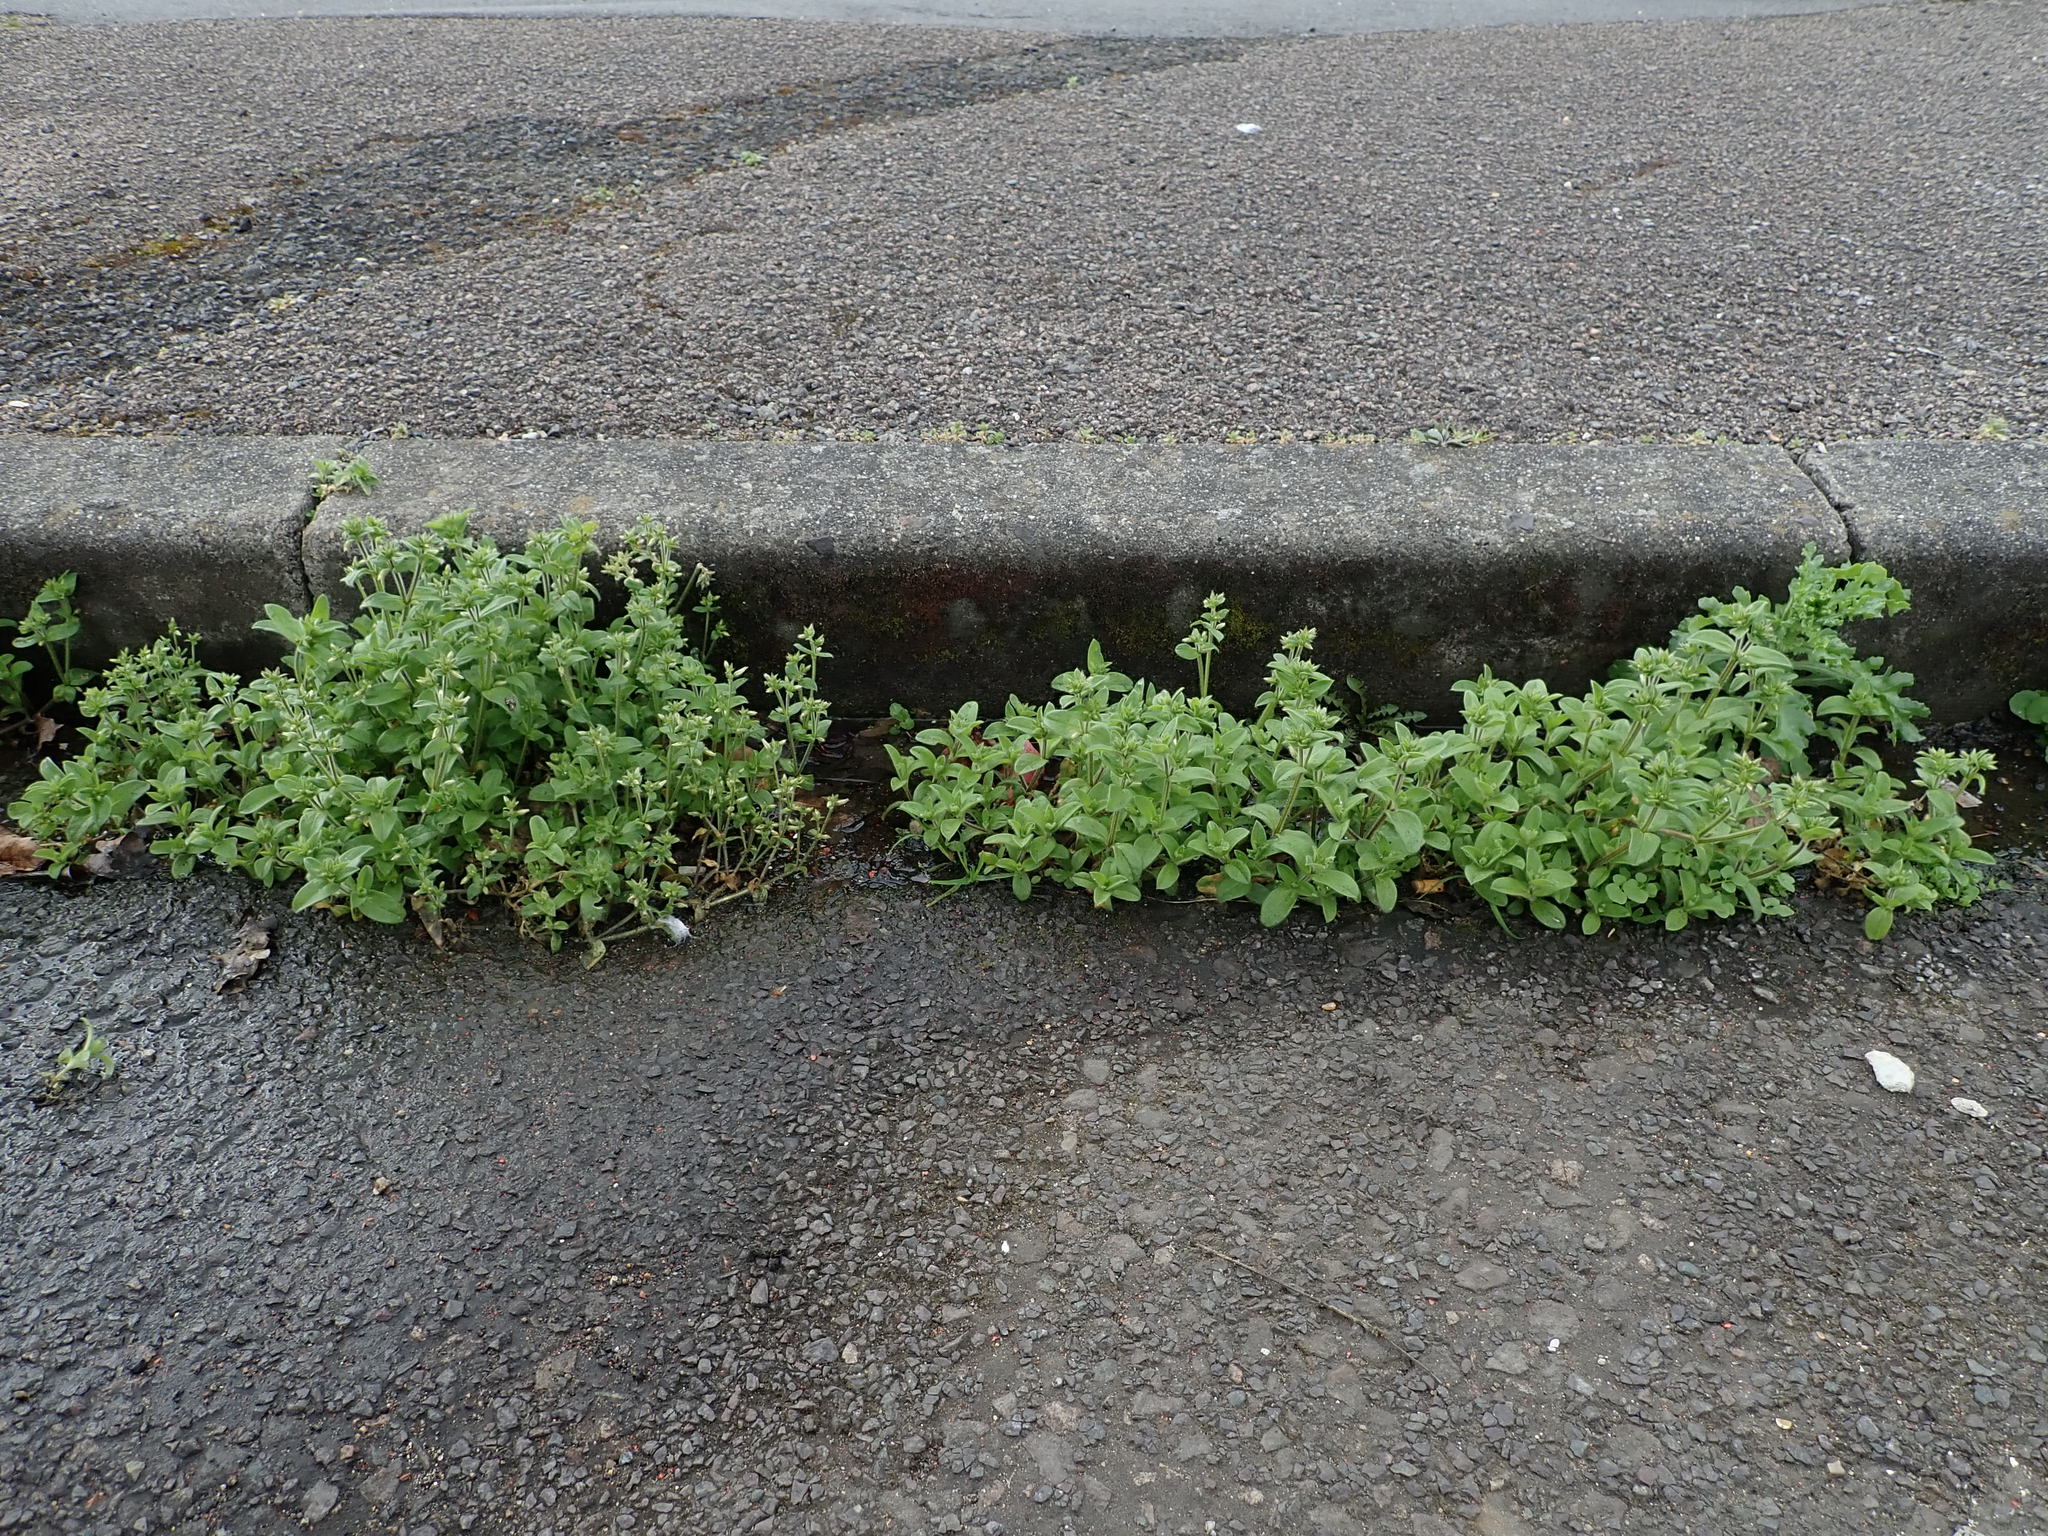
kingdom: Plantae
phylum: Tracheophyta
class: Magnoliopsida
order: Caryophyllales
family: Caryophyllaceae
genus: Cerastium
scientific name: Cerastium glomeratum
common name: Sticky chickweed
